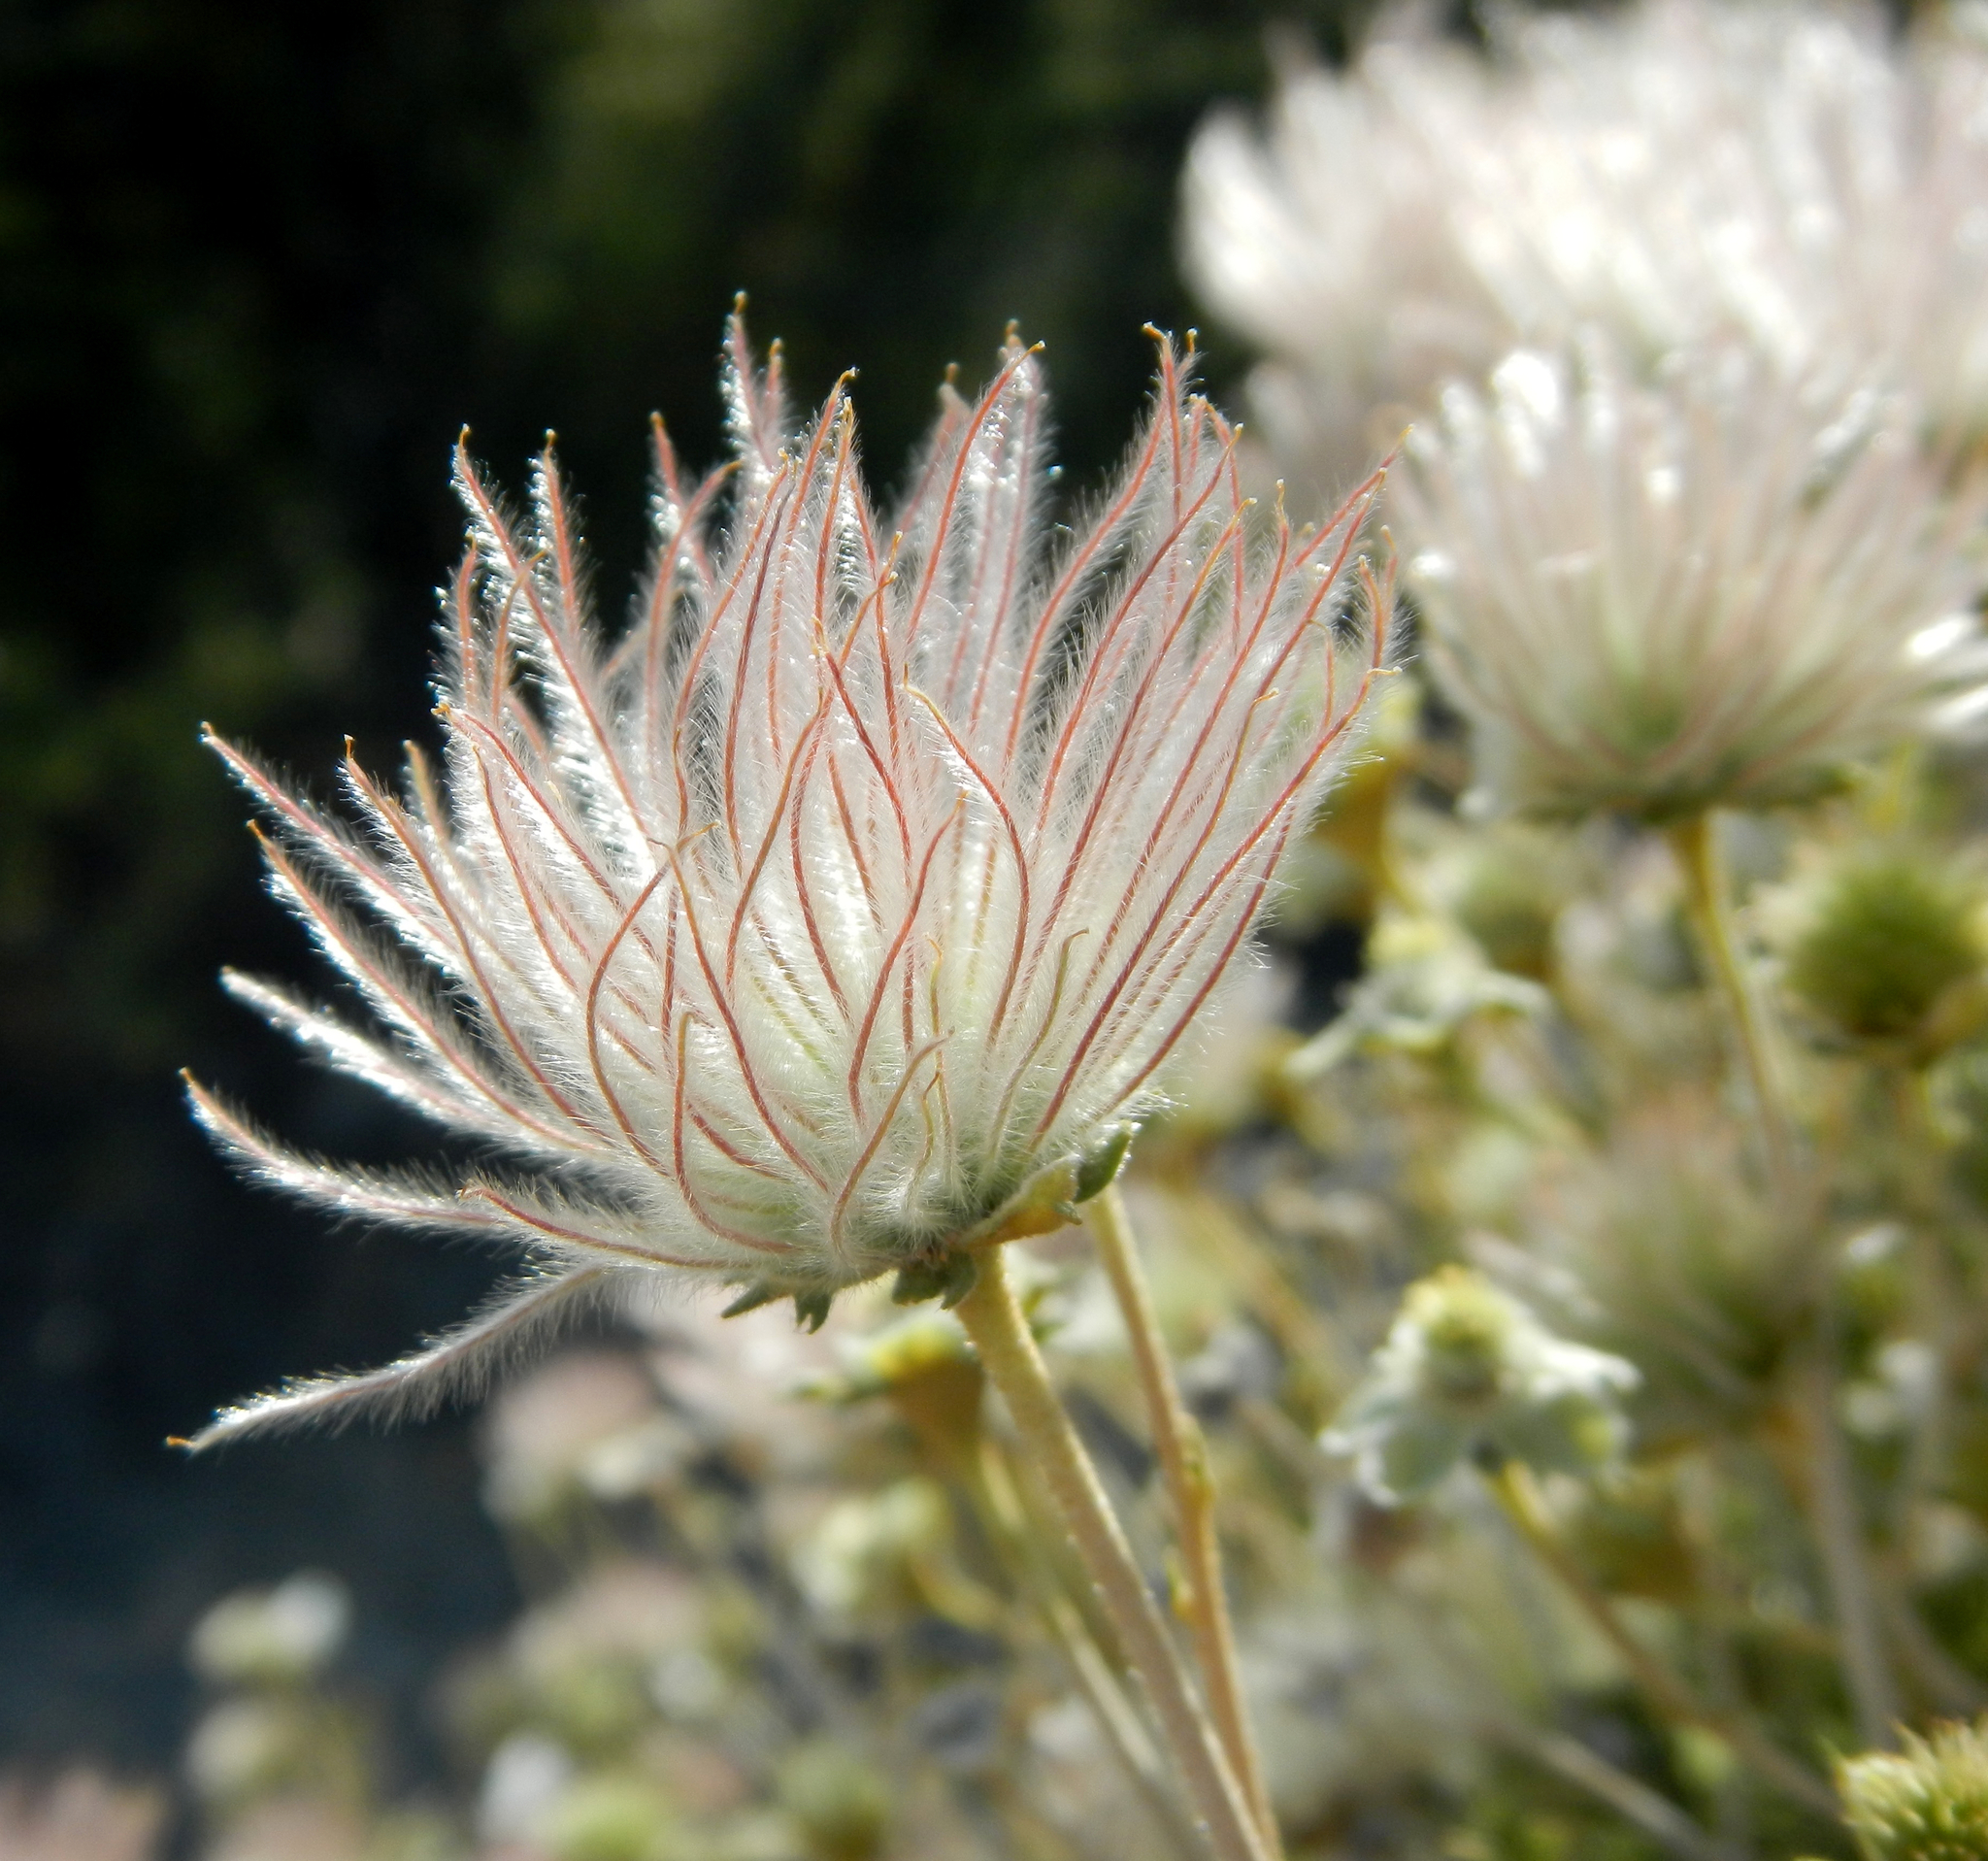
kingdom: Plantae
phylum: Tracheophyta
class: Magnoliopsida
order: Rosales
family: Rosaceae
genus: Fallugia
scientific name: Fallugia paradoxa
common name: Apache-plume
